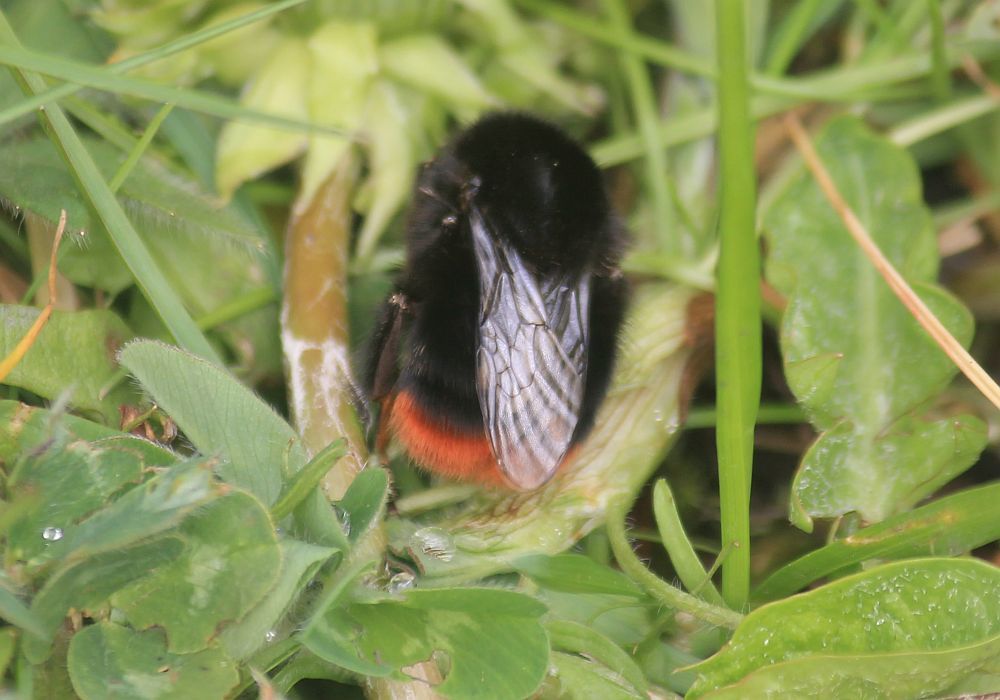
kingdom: Animalia
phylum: Arthropoda
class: Insecta
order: Hymenoptera
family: Apidae
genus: Bombus
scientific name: Bombus lapidarius
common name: Large red-tailed humble-bee
